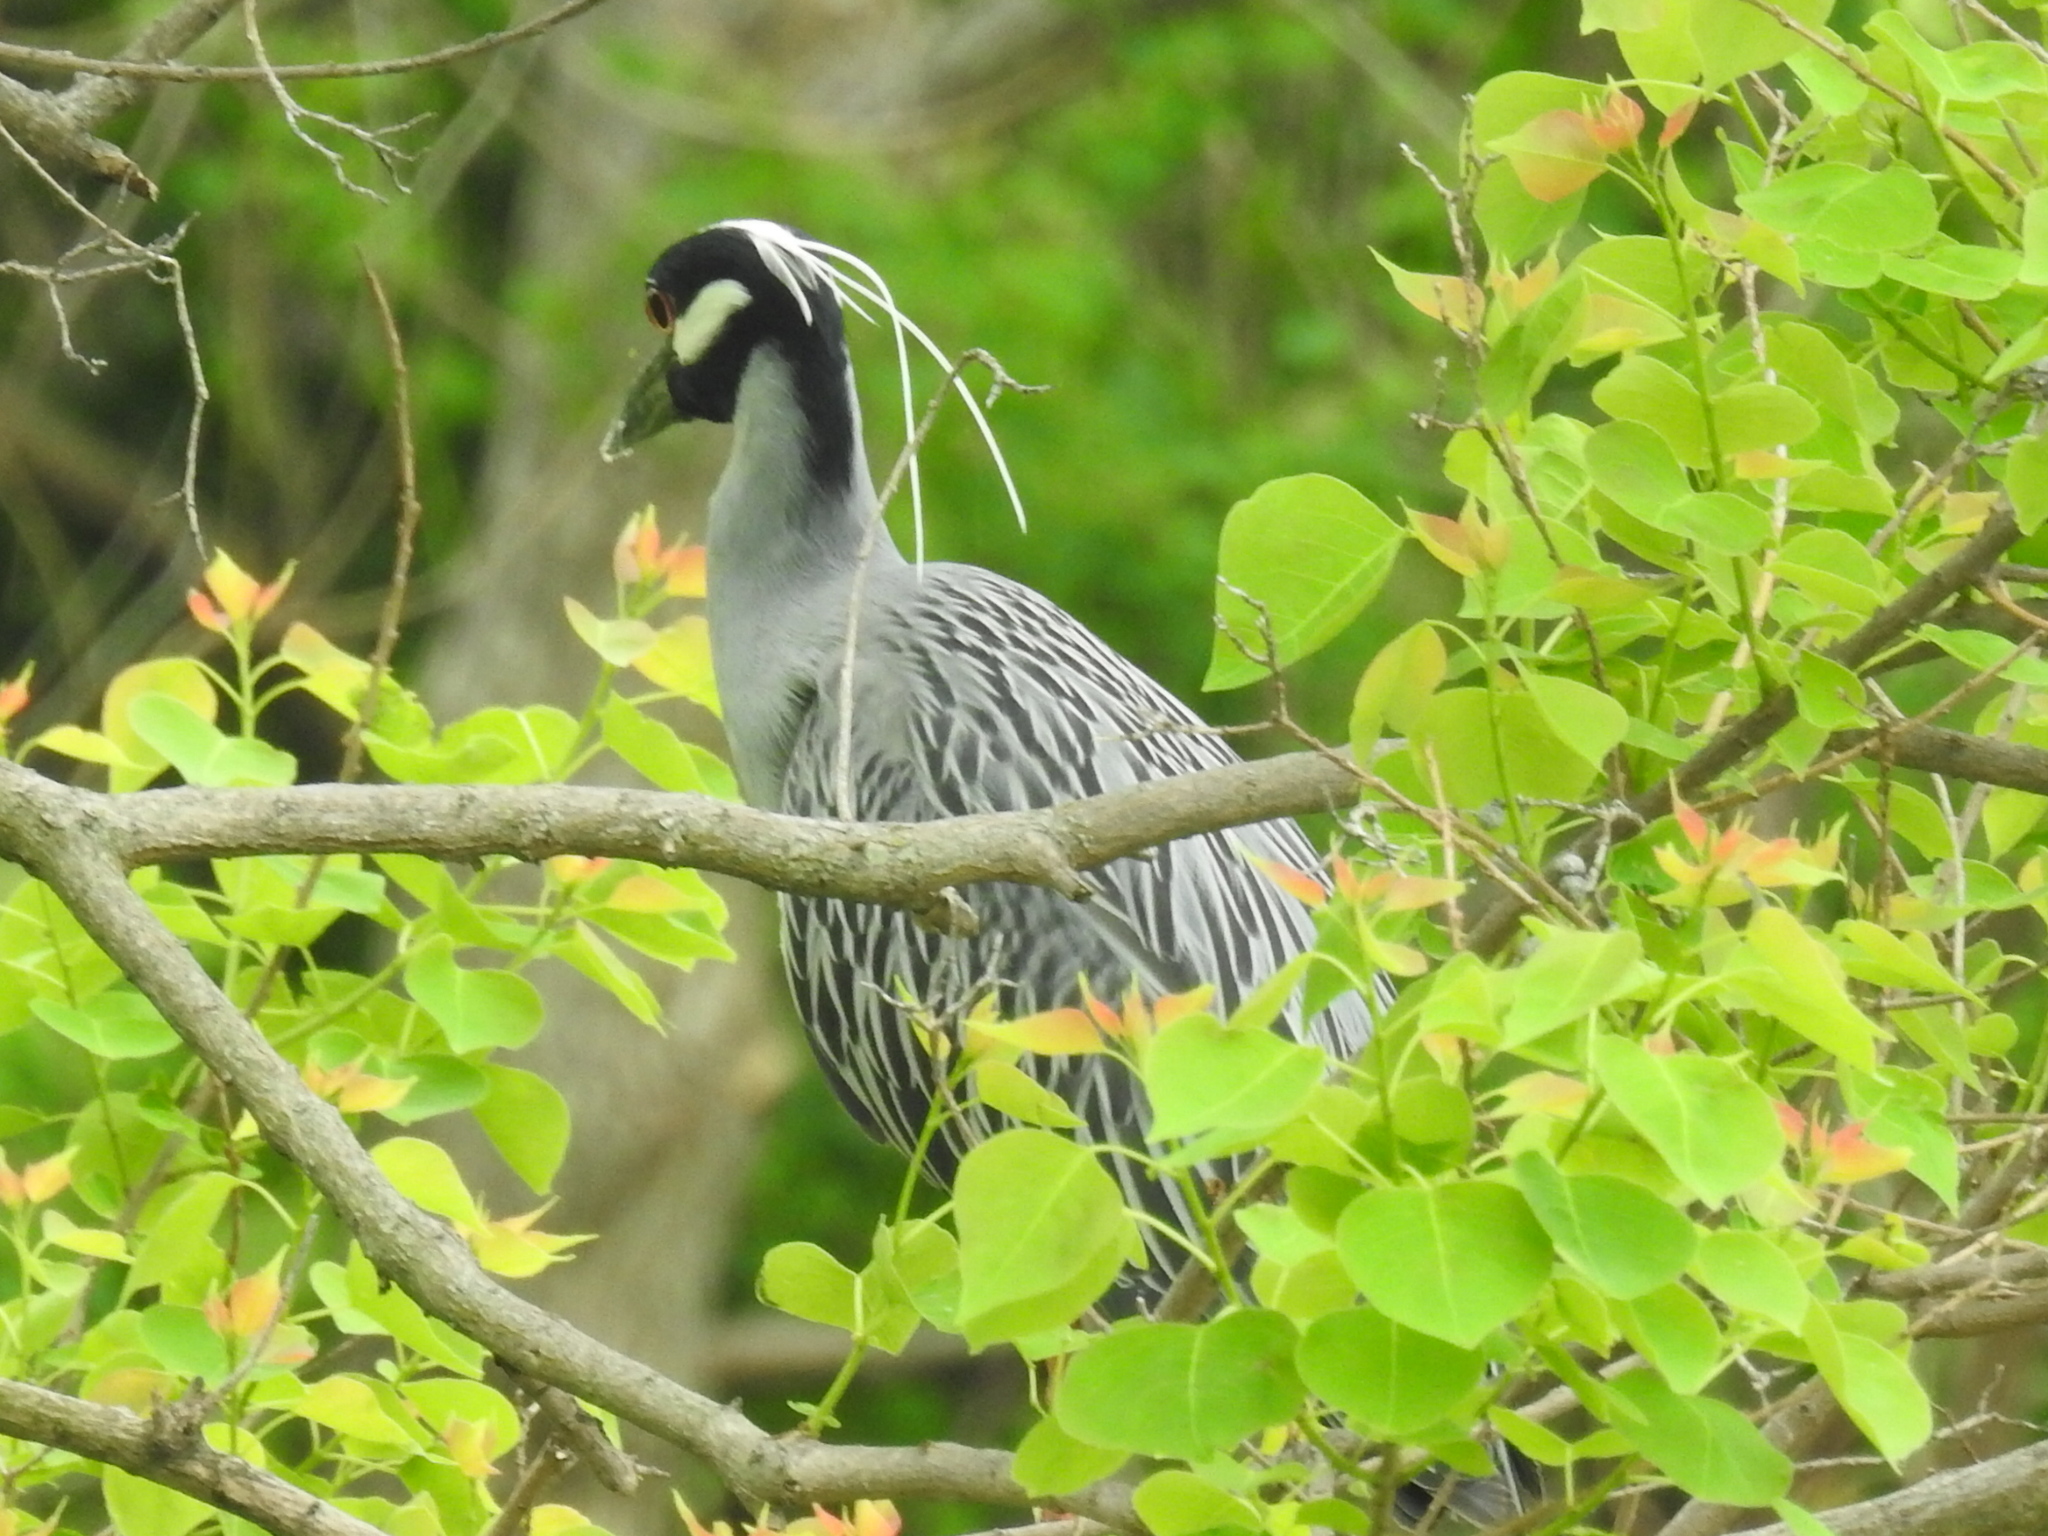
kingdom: Animalia
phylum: Chordata
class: Aves
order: Pelecaniformes
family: Ardeidae
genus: Nyctanassa
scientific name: Nyctanassa violacea
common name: Yellow-crowned night heron
